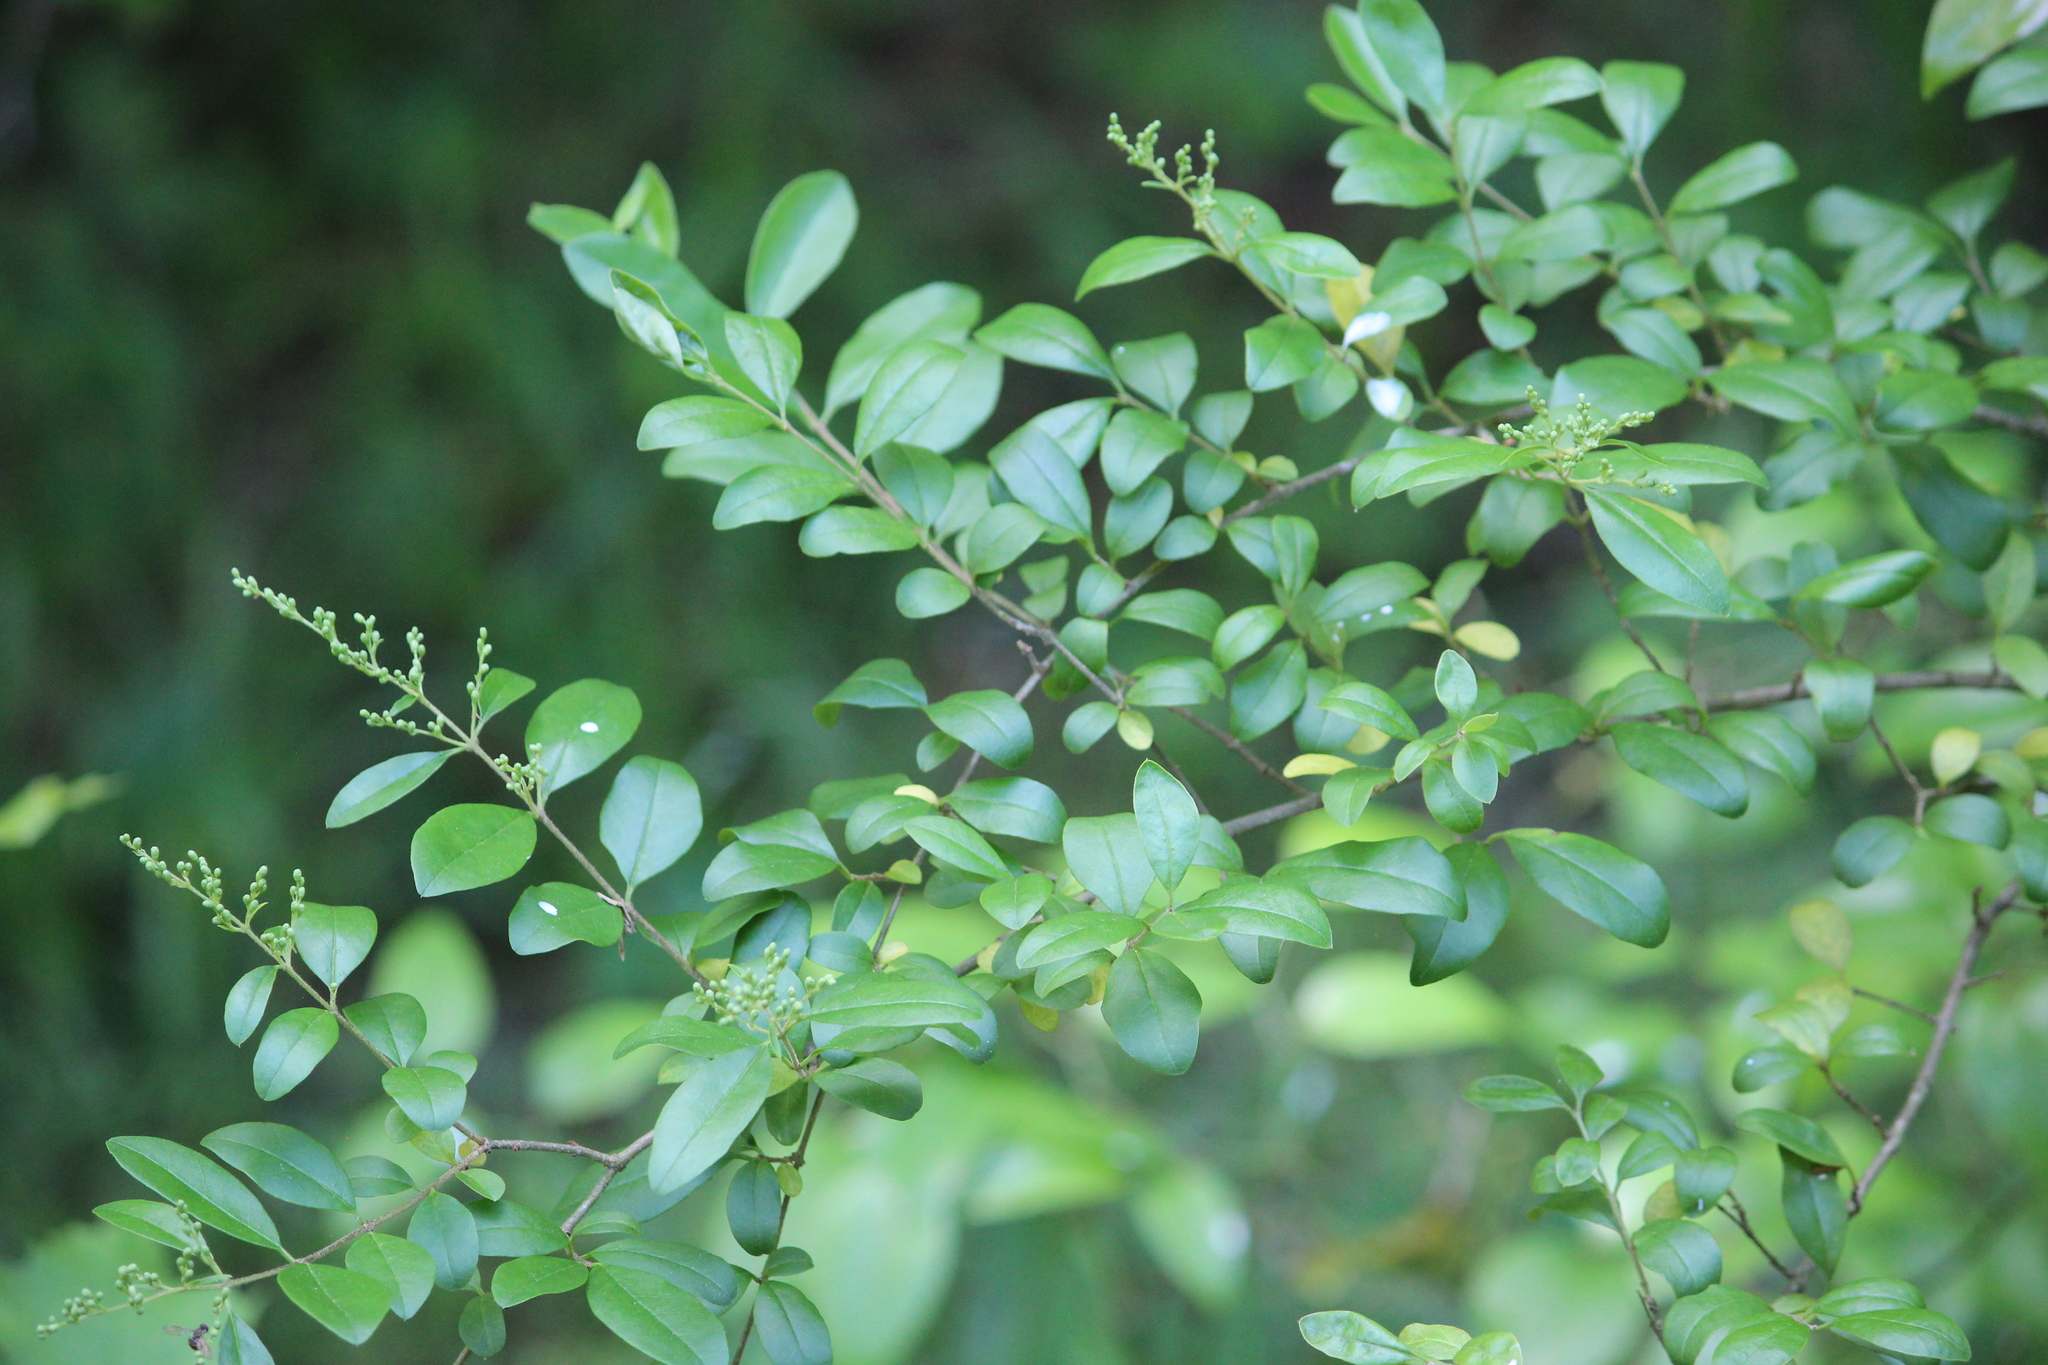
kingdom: Plantae
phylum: Tracheophyta
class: Magnoliopsida
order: Lamiales
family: Oleaceae
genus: Ligustrum
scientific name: Ligustrum sinense
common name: Chinese privet
